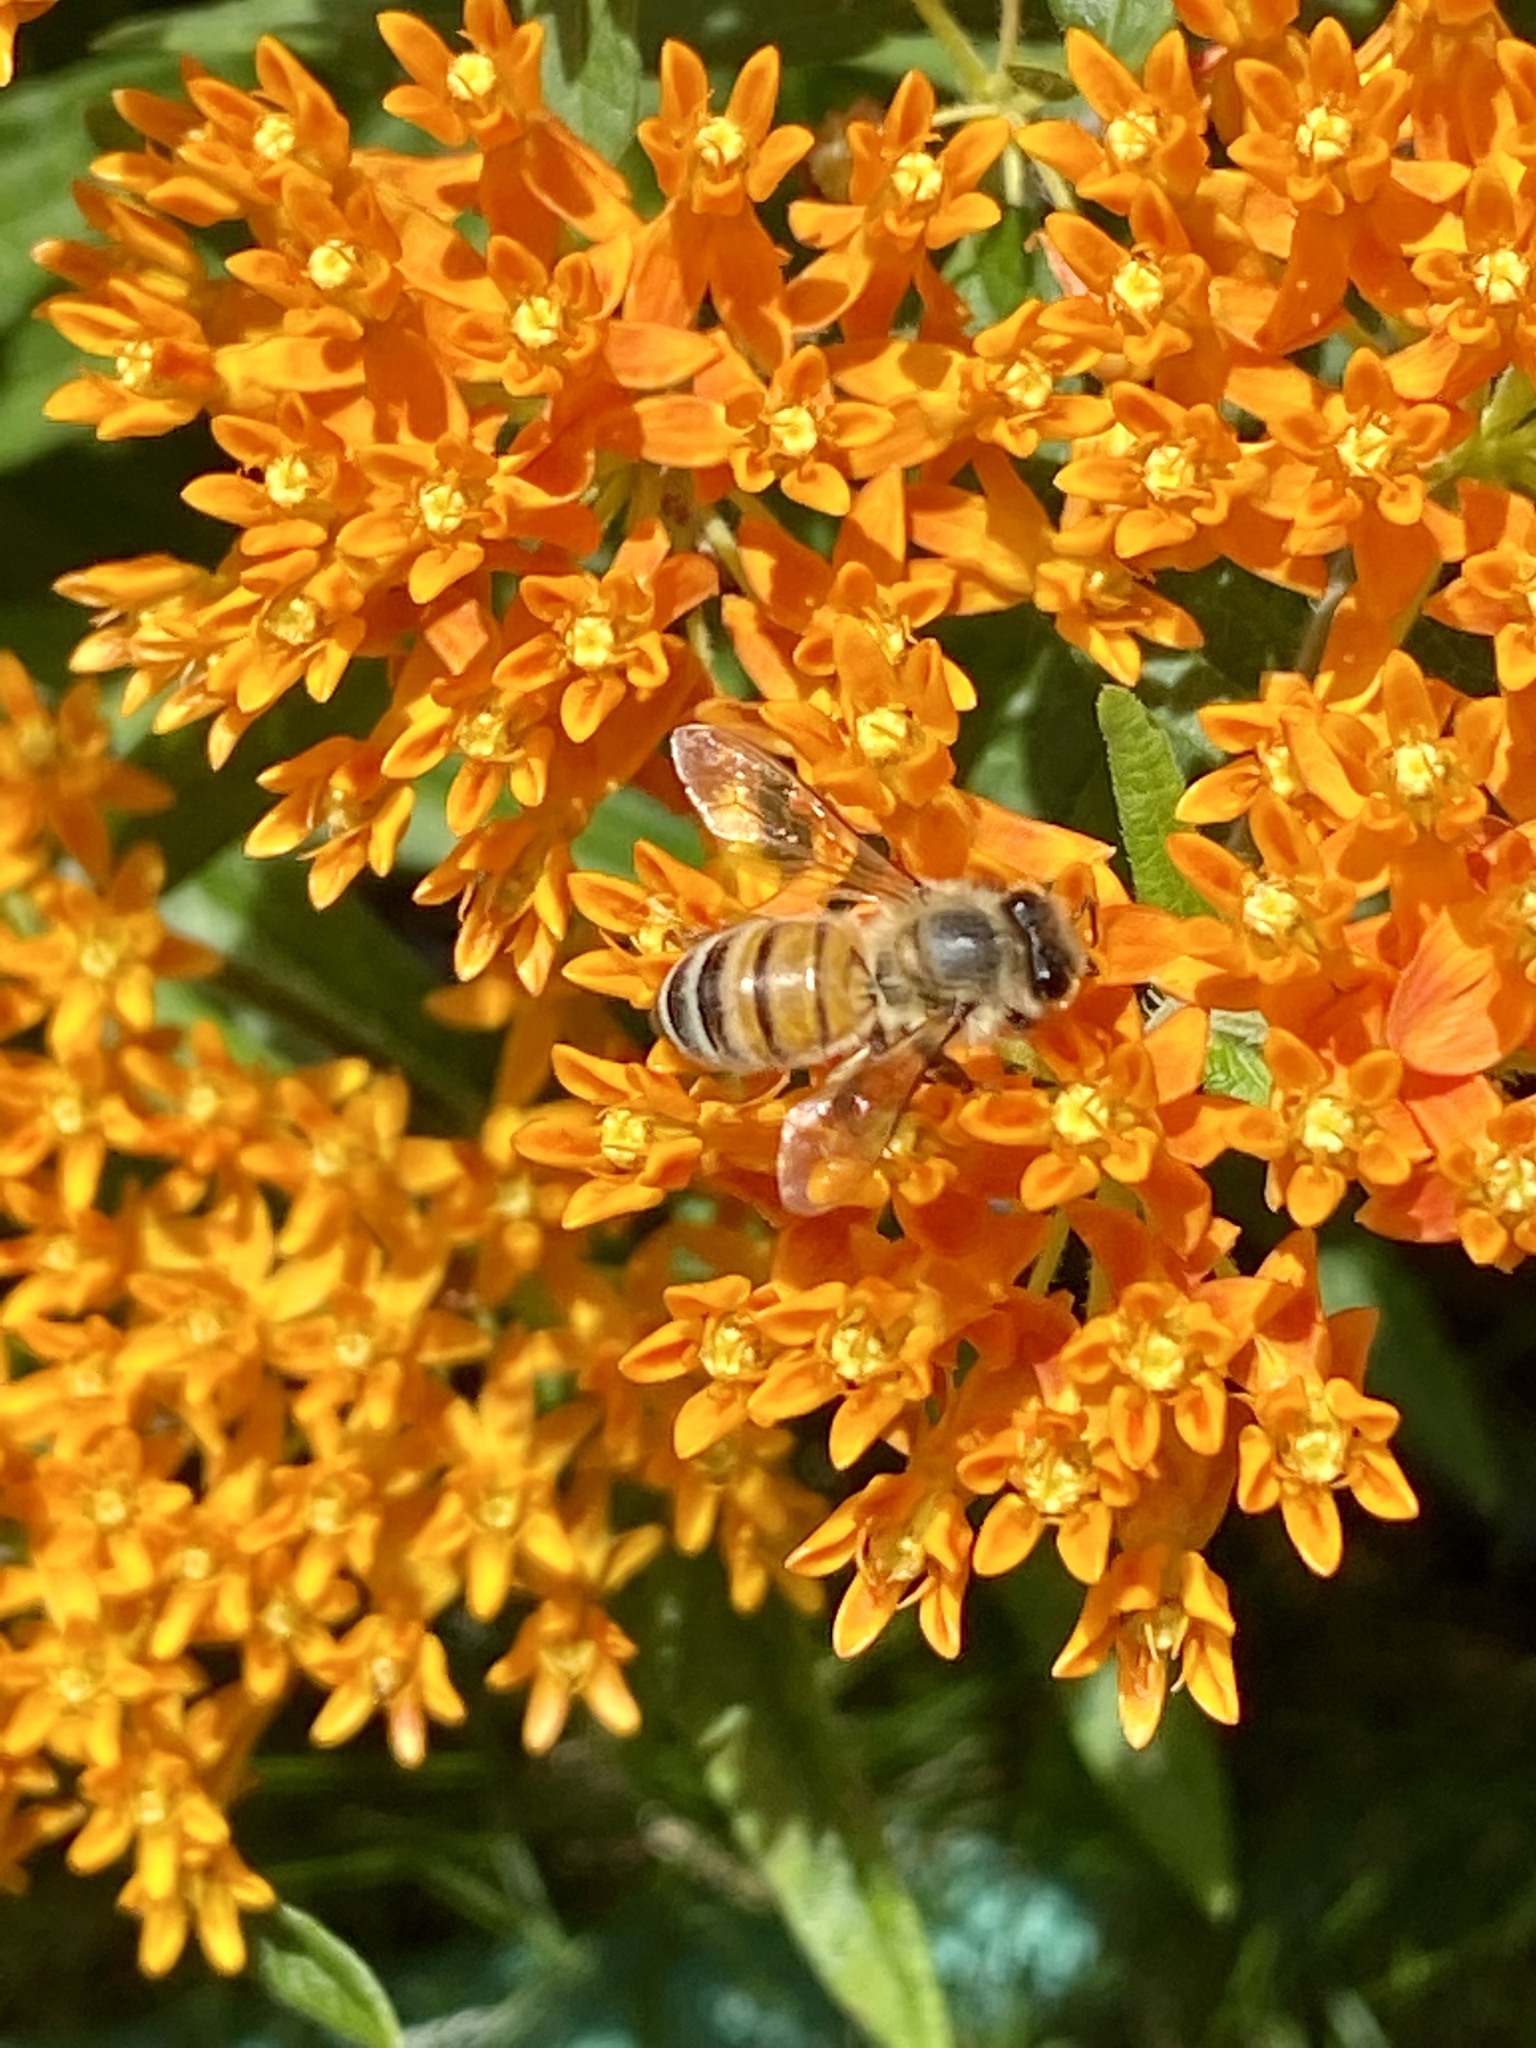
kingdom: Animalia
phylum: Arthropoda
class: Insecta
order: Hymenoptera
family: Apidae
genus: Apis
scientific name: Apis mellifera
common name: Honey bee
